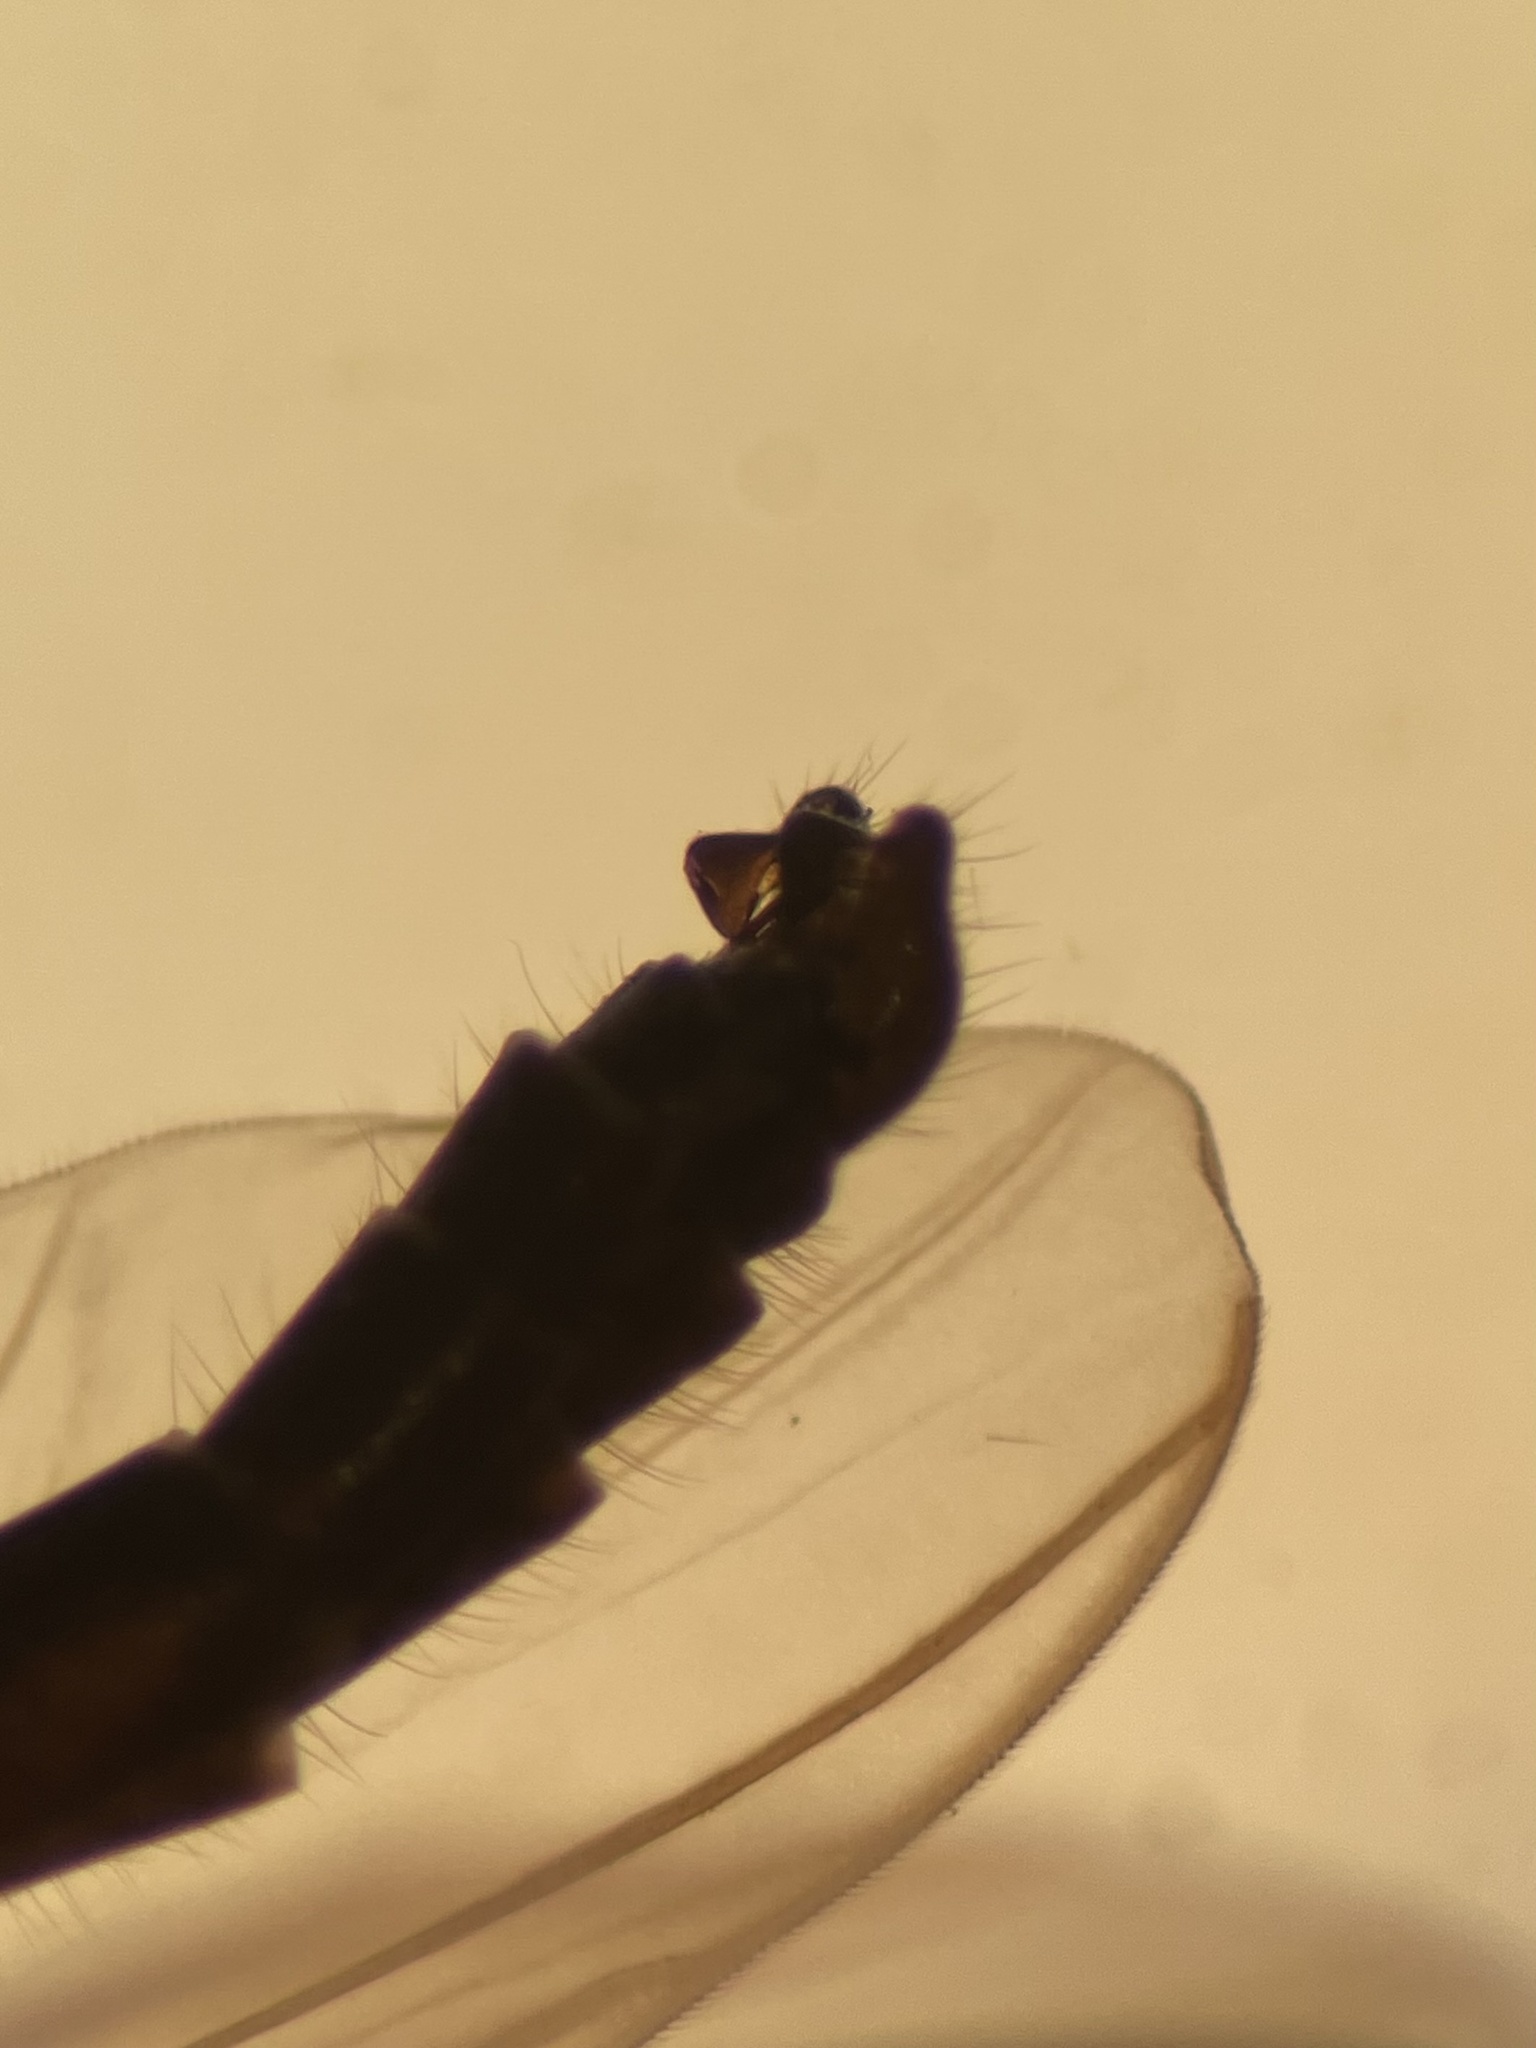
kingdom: Animalia
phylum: Arthropoda
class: Insecta
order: Diptera
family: Chironomidae
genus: Diamesa
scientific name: Diamesa nivoriunda
